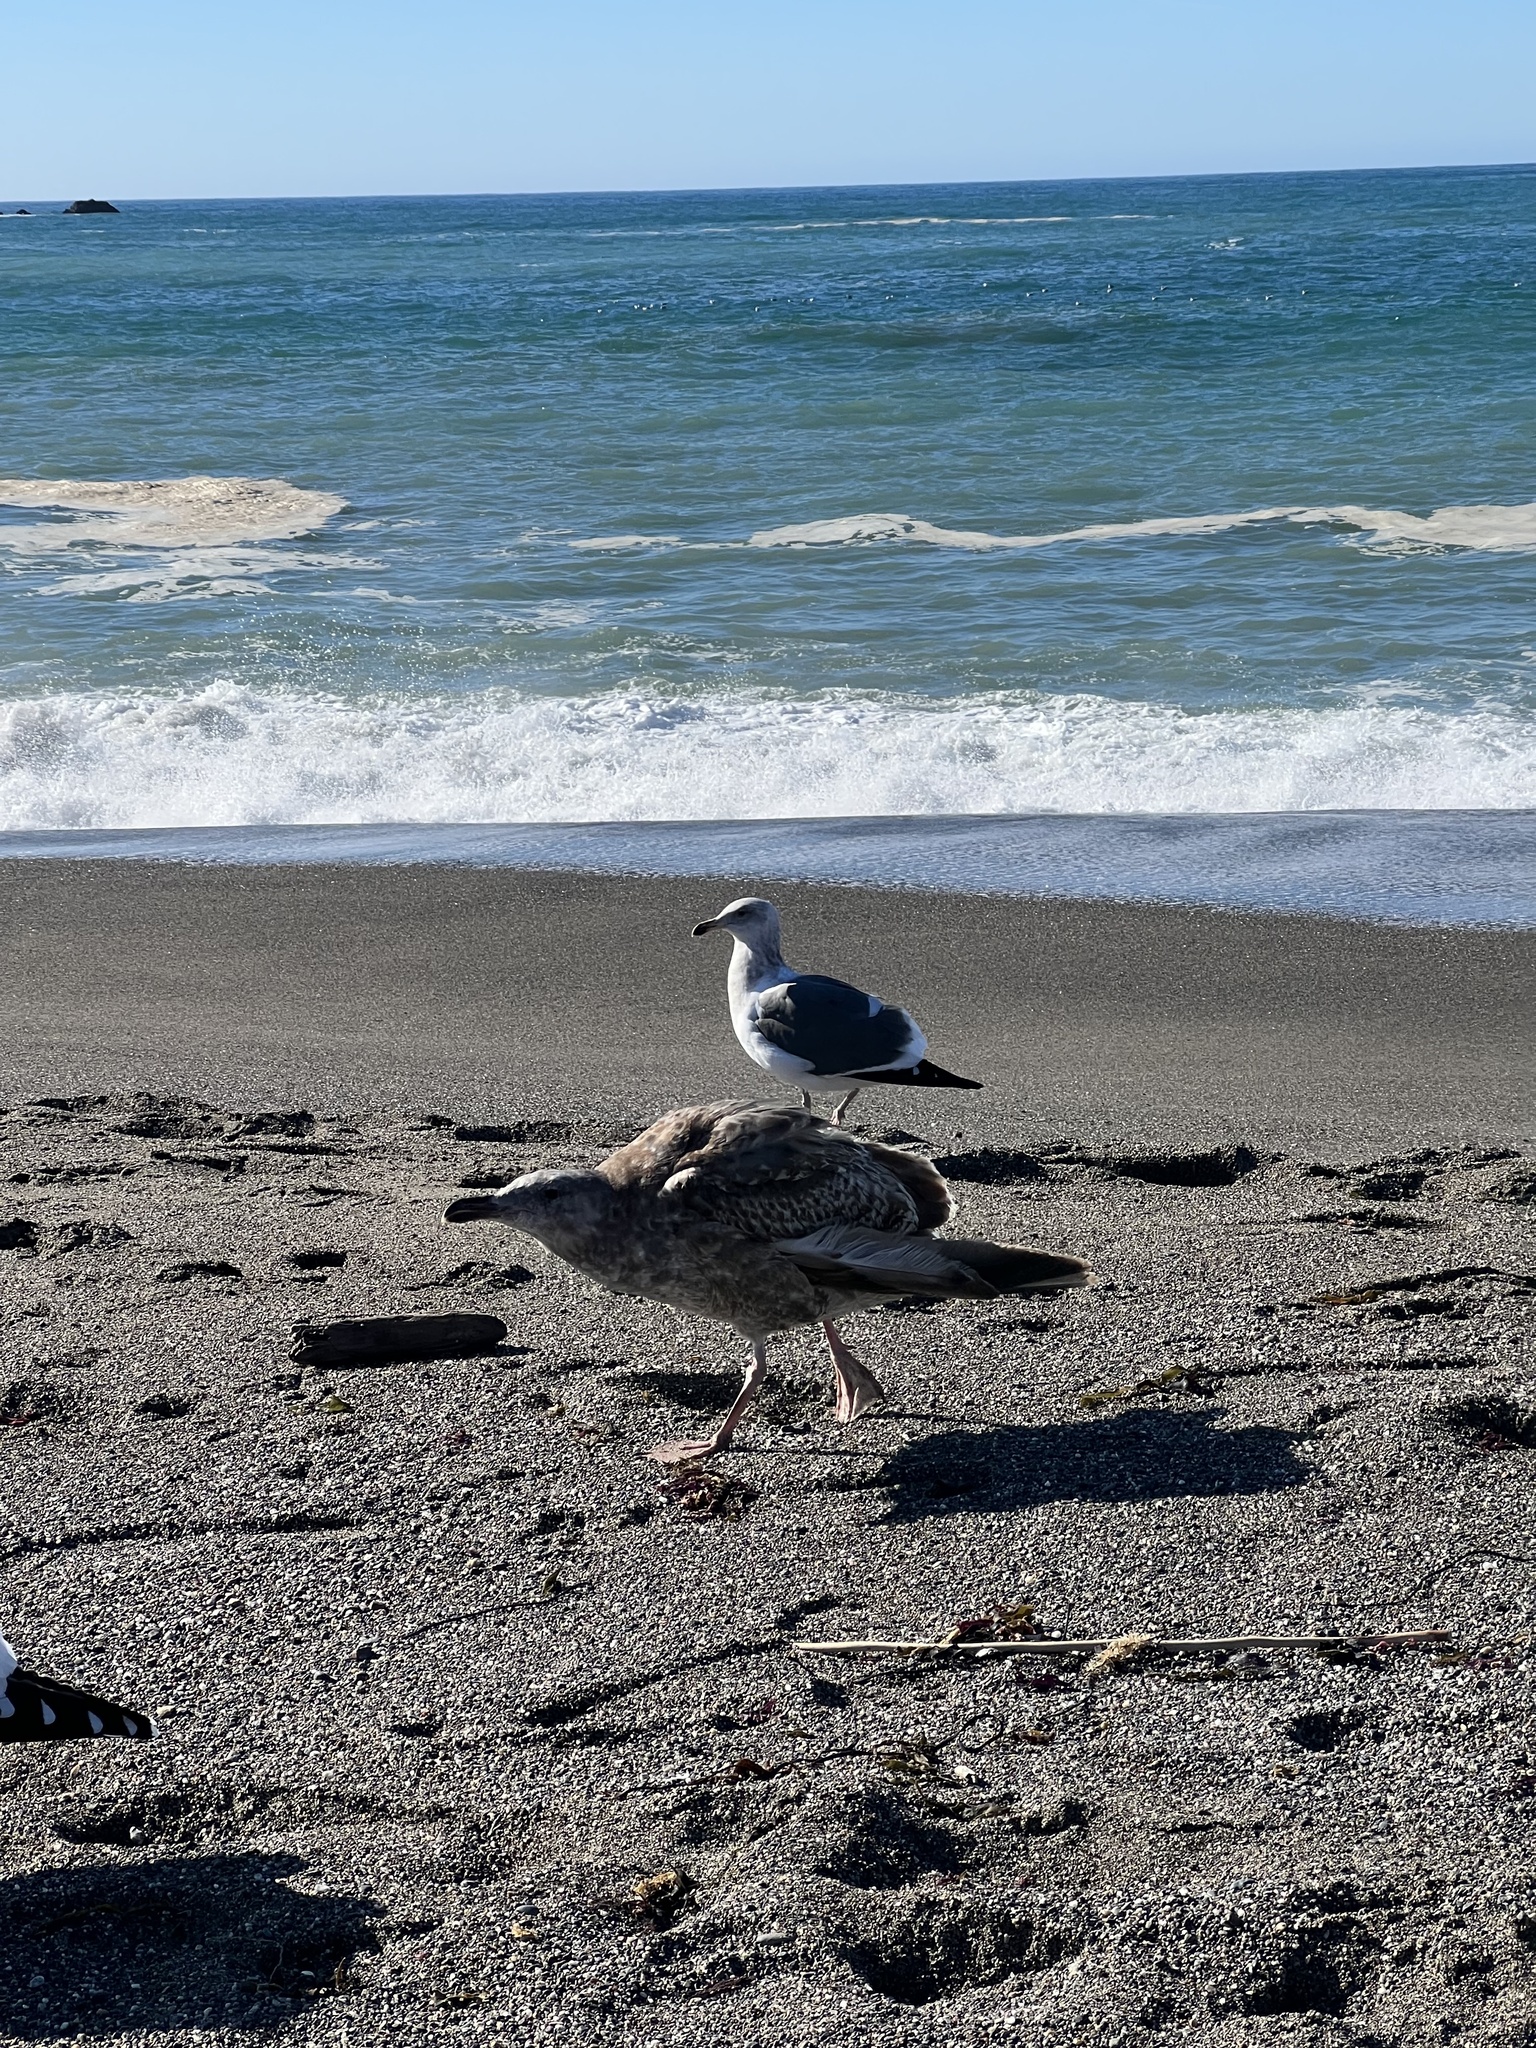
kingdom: Animalia
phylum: Chordata
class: Aves
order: Charadriiformes
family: Laridae
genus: Larus
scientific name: Larus occidentalis
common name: Western gull
